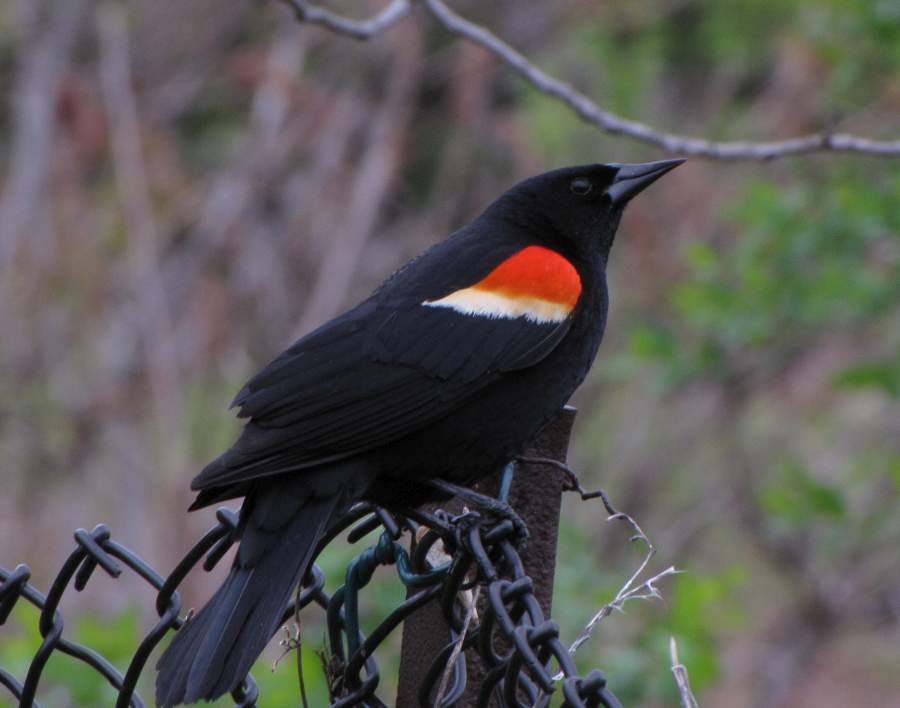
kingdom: Animalia
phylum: Chordata
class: Aves
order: Passeriformes
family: Icteridae
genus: Agelaius
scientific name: Agelaius phoeniceus
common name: Red-winged blackbird
